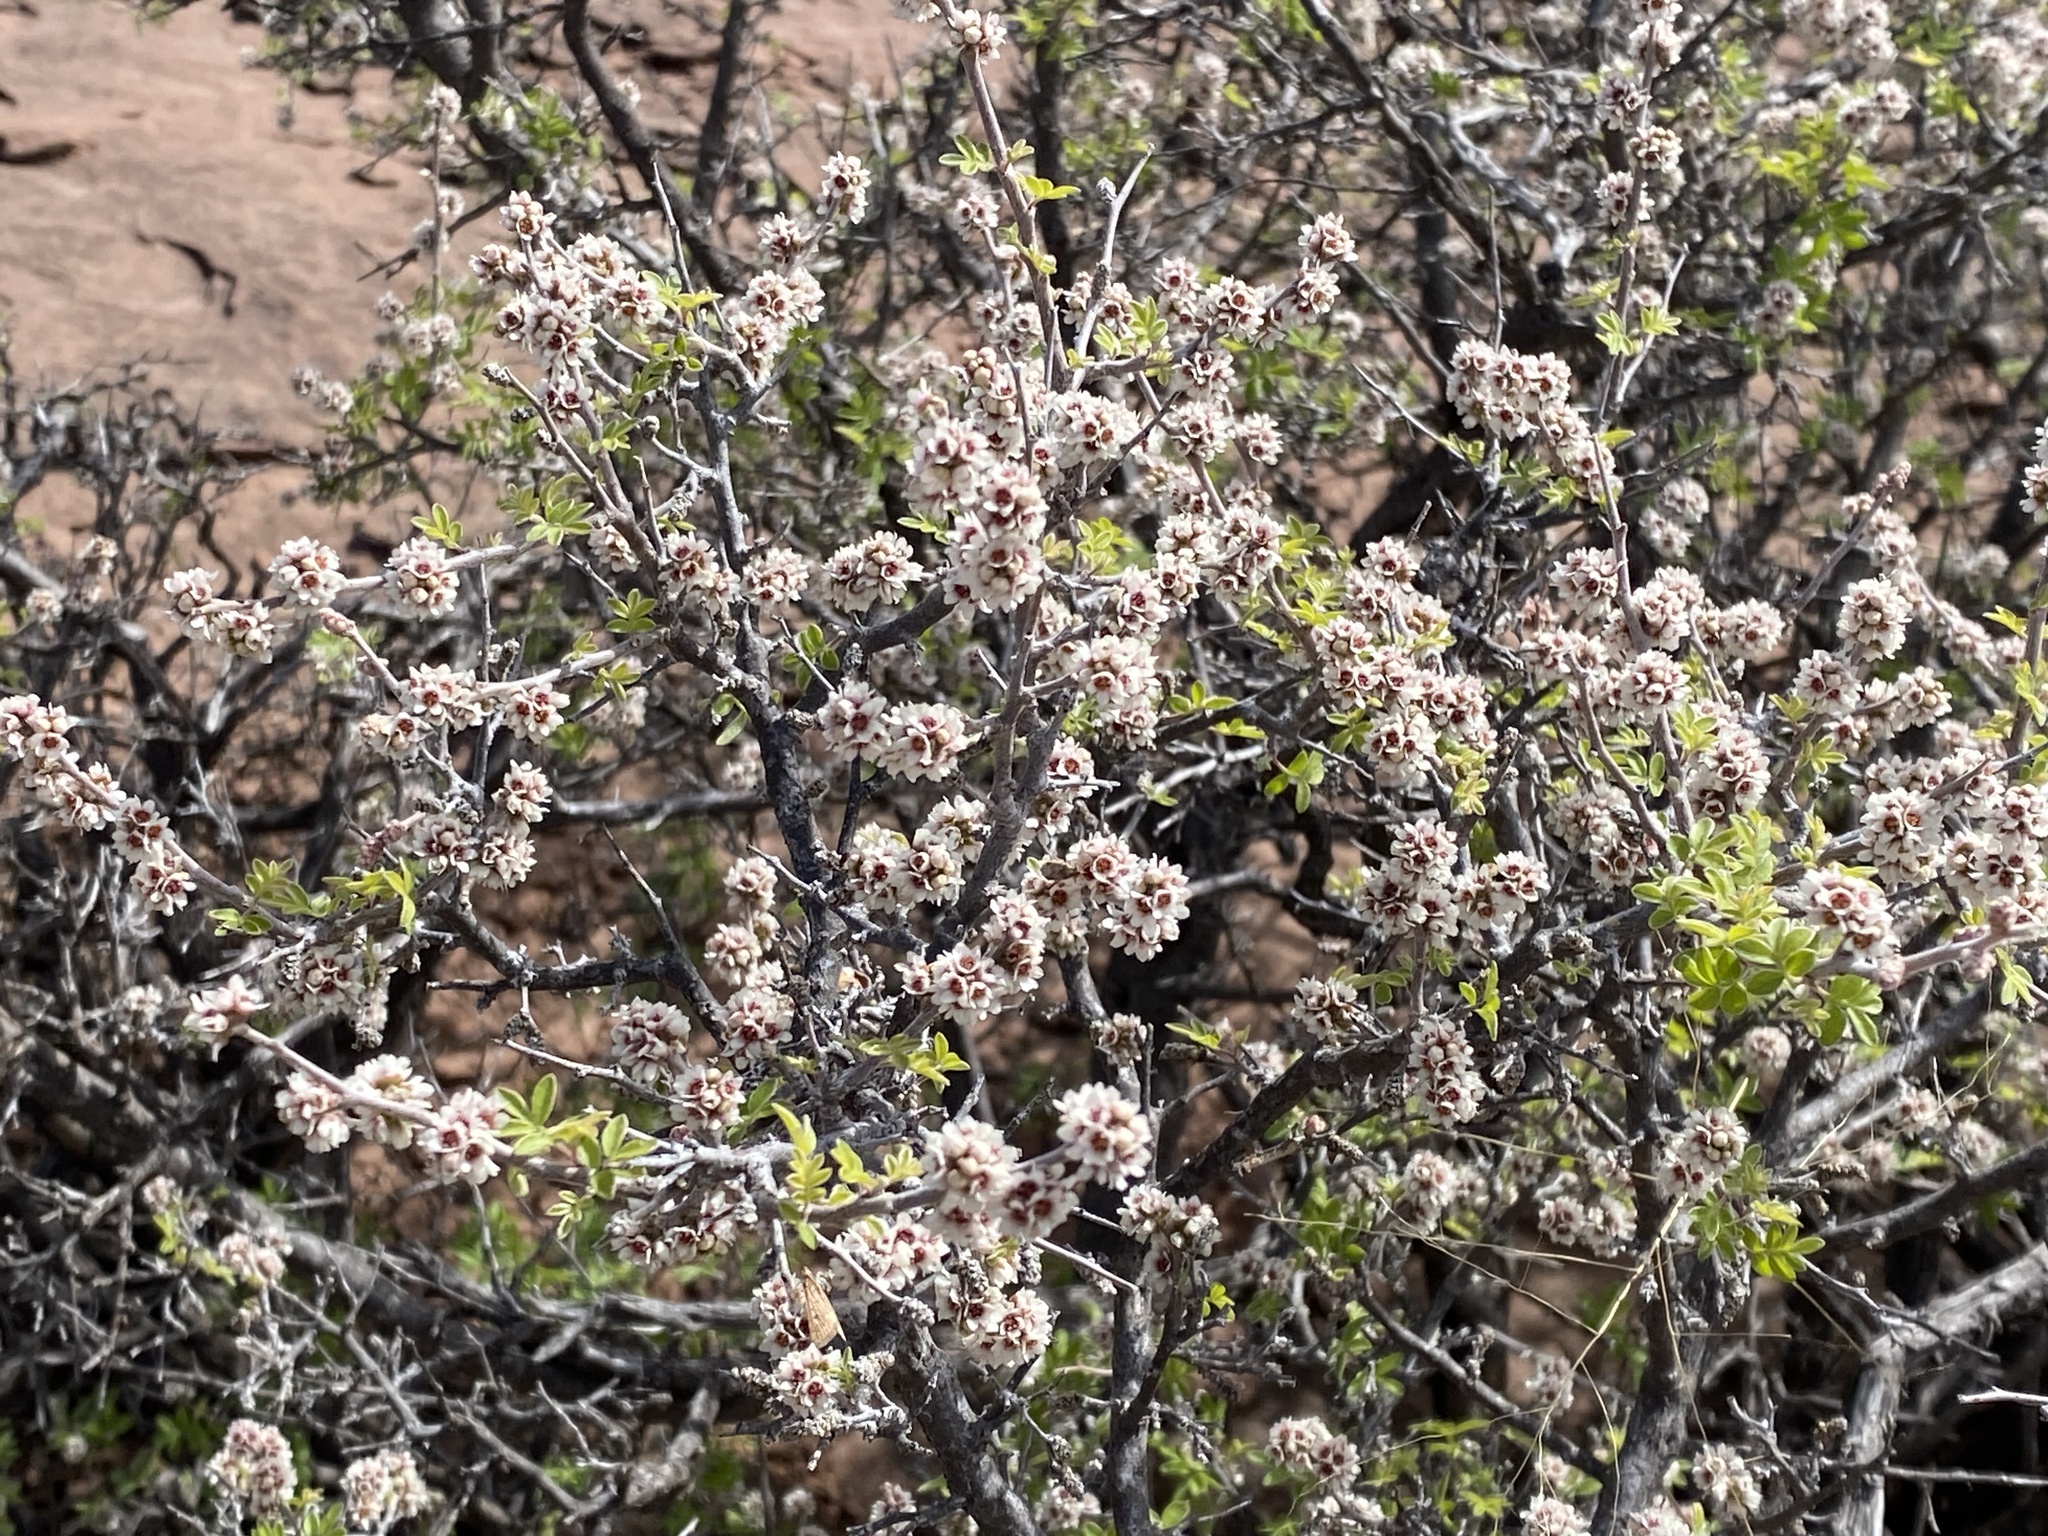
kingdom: Plantae
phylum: Tracheophyta
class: Magnoliopsida
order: Sapindales
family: Anacardiaceae
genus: Rhus
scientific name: Rhus microphylla
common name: Desert sumac
